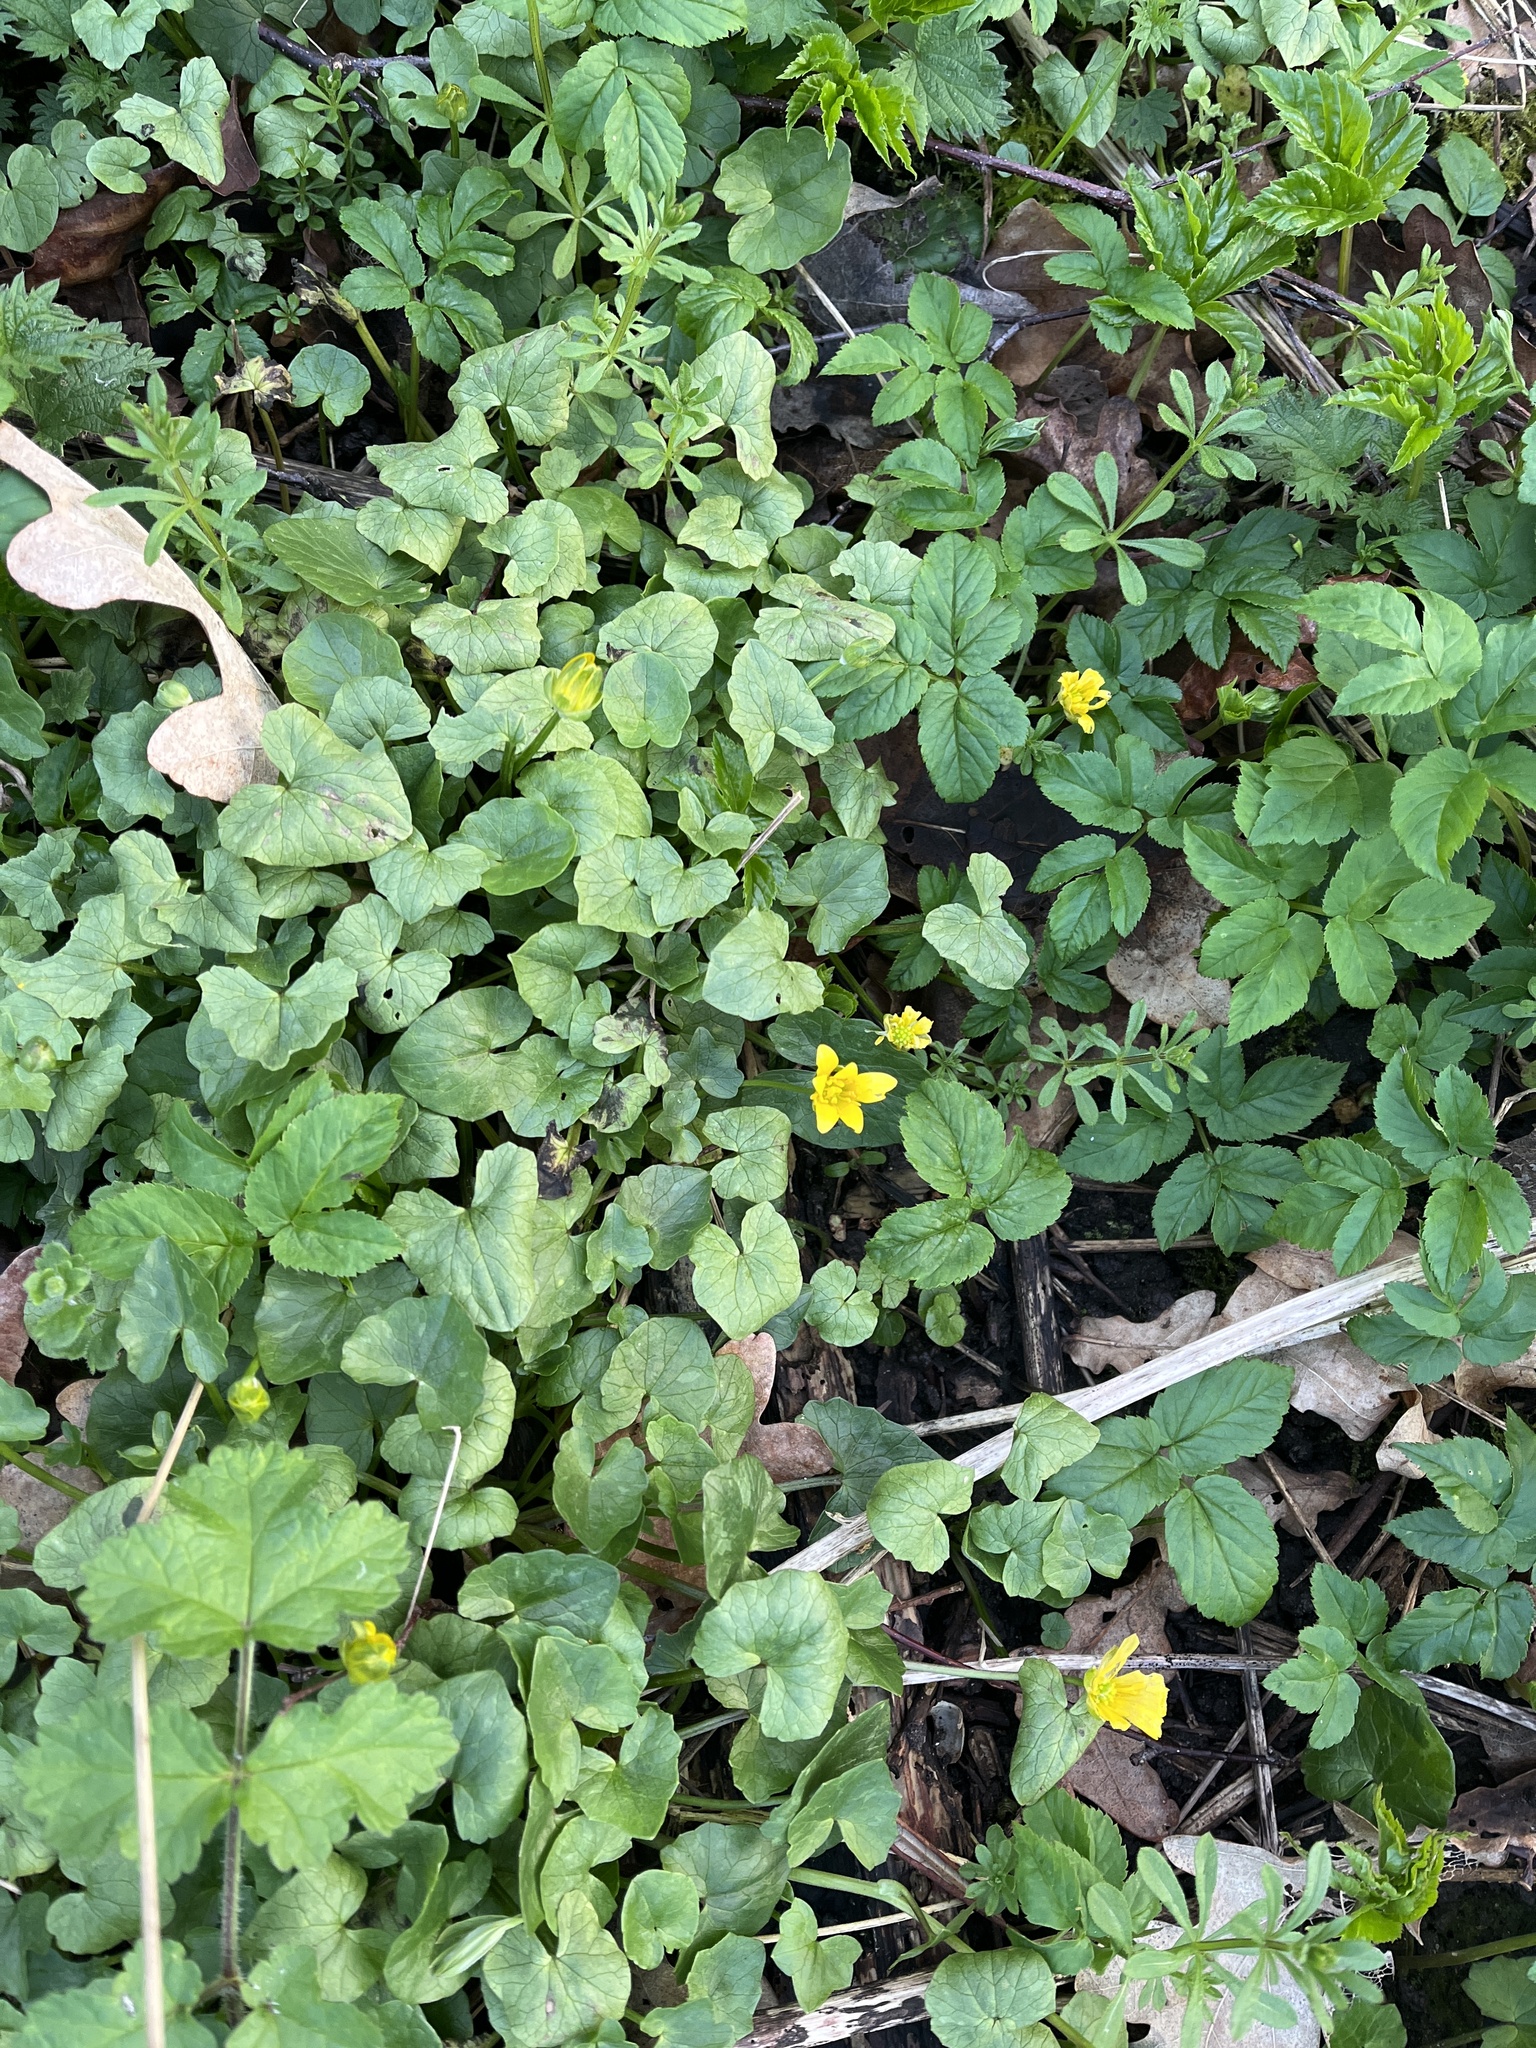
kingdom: Plantae
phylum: Tracheophyta
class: Magnoliopsida
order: Ranunculales
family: Ranunculaceae
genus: Ficaria
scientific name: Ficaria verna
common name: Lesser celandine
